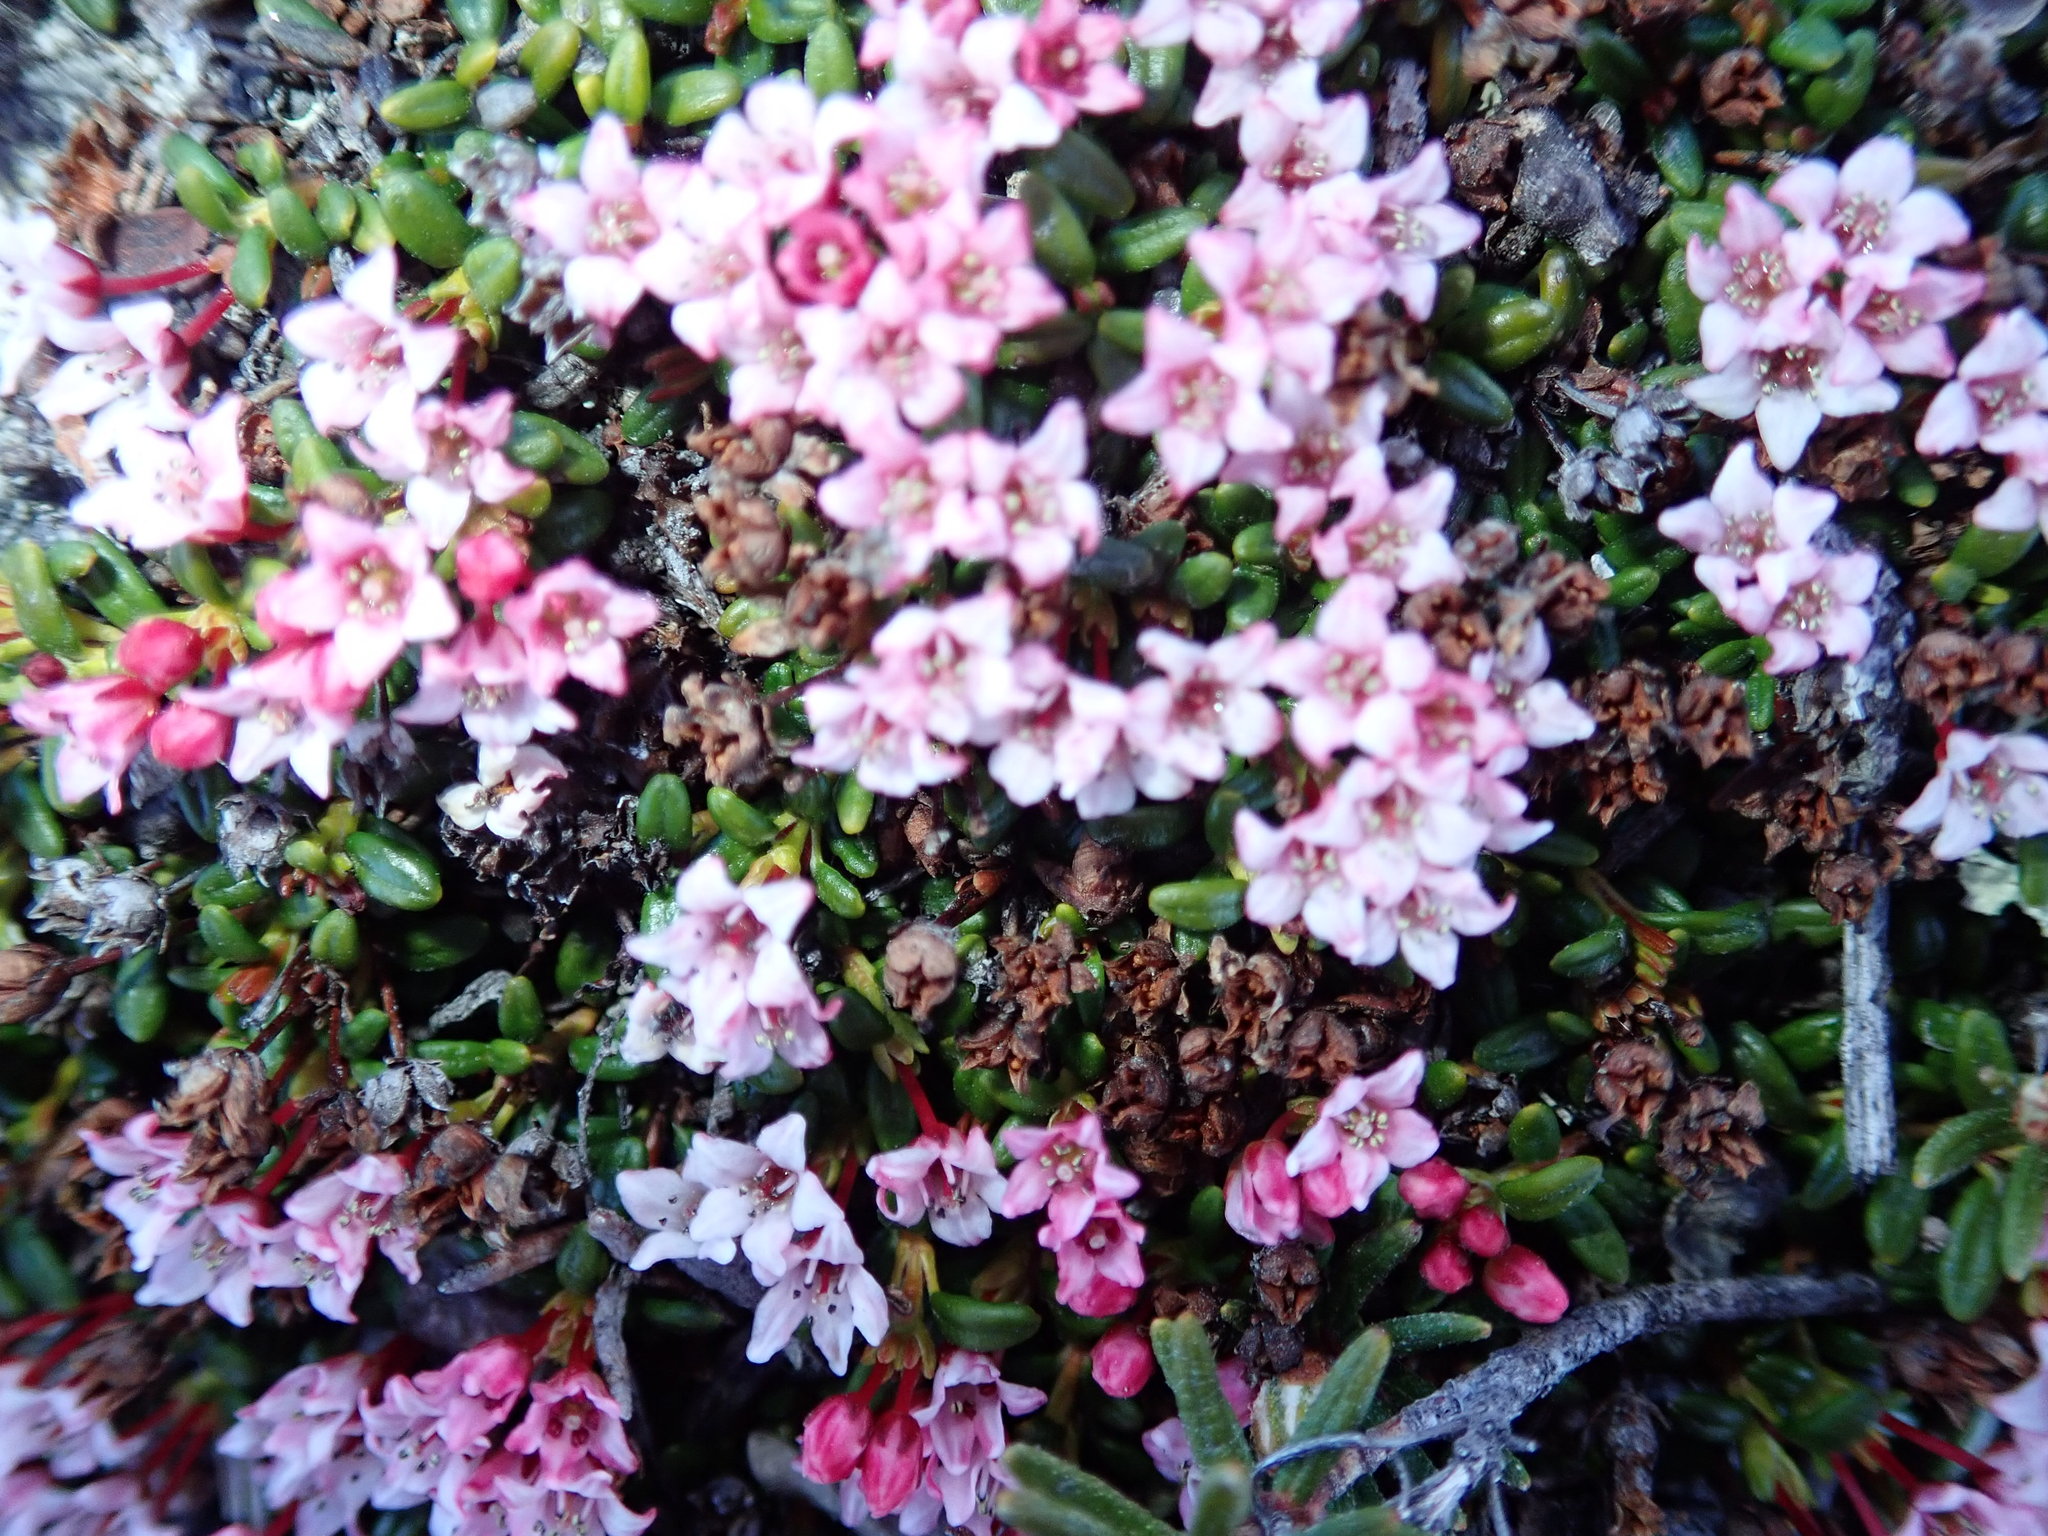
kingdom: Plantae
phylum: Tracheophyta
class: Magnoliopsida
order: Ericales
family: Ericaceae
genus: Kalmia
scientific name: Kalmia procumbens
